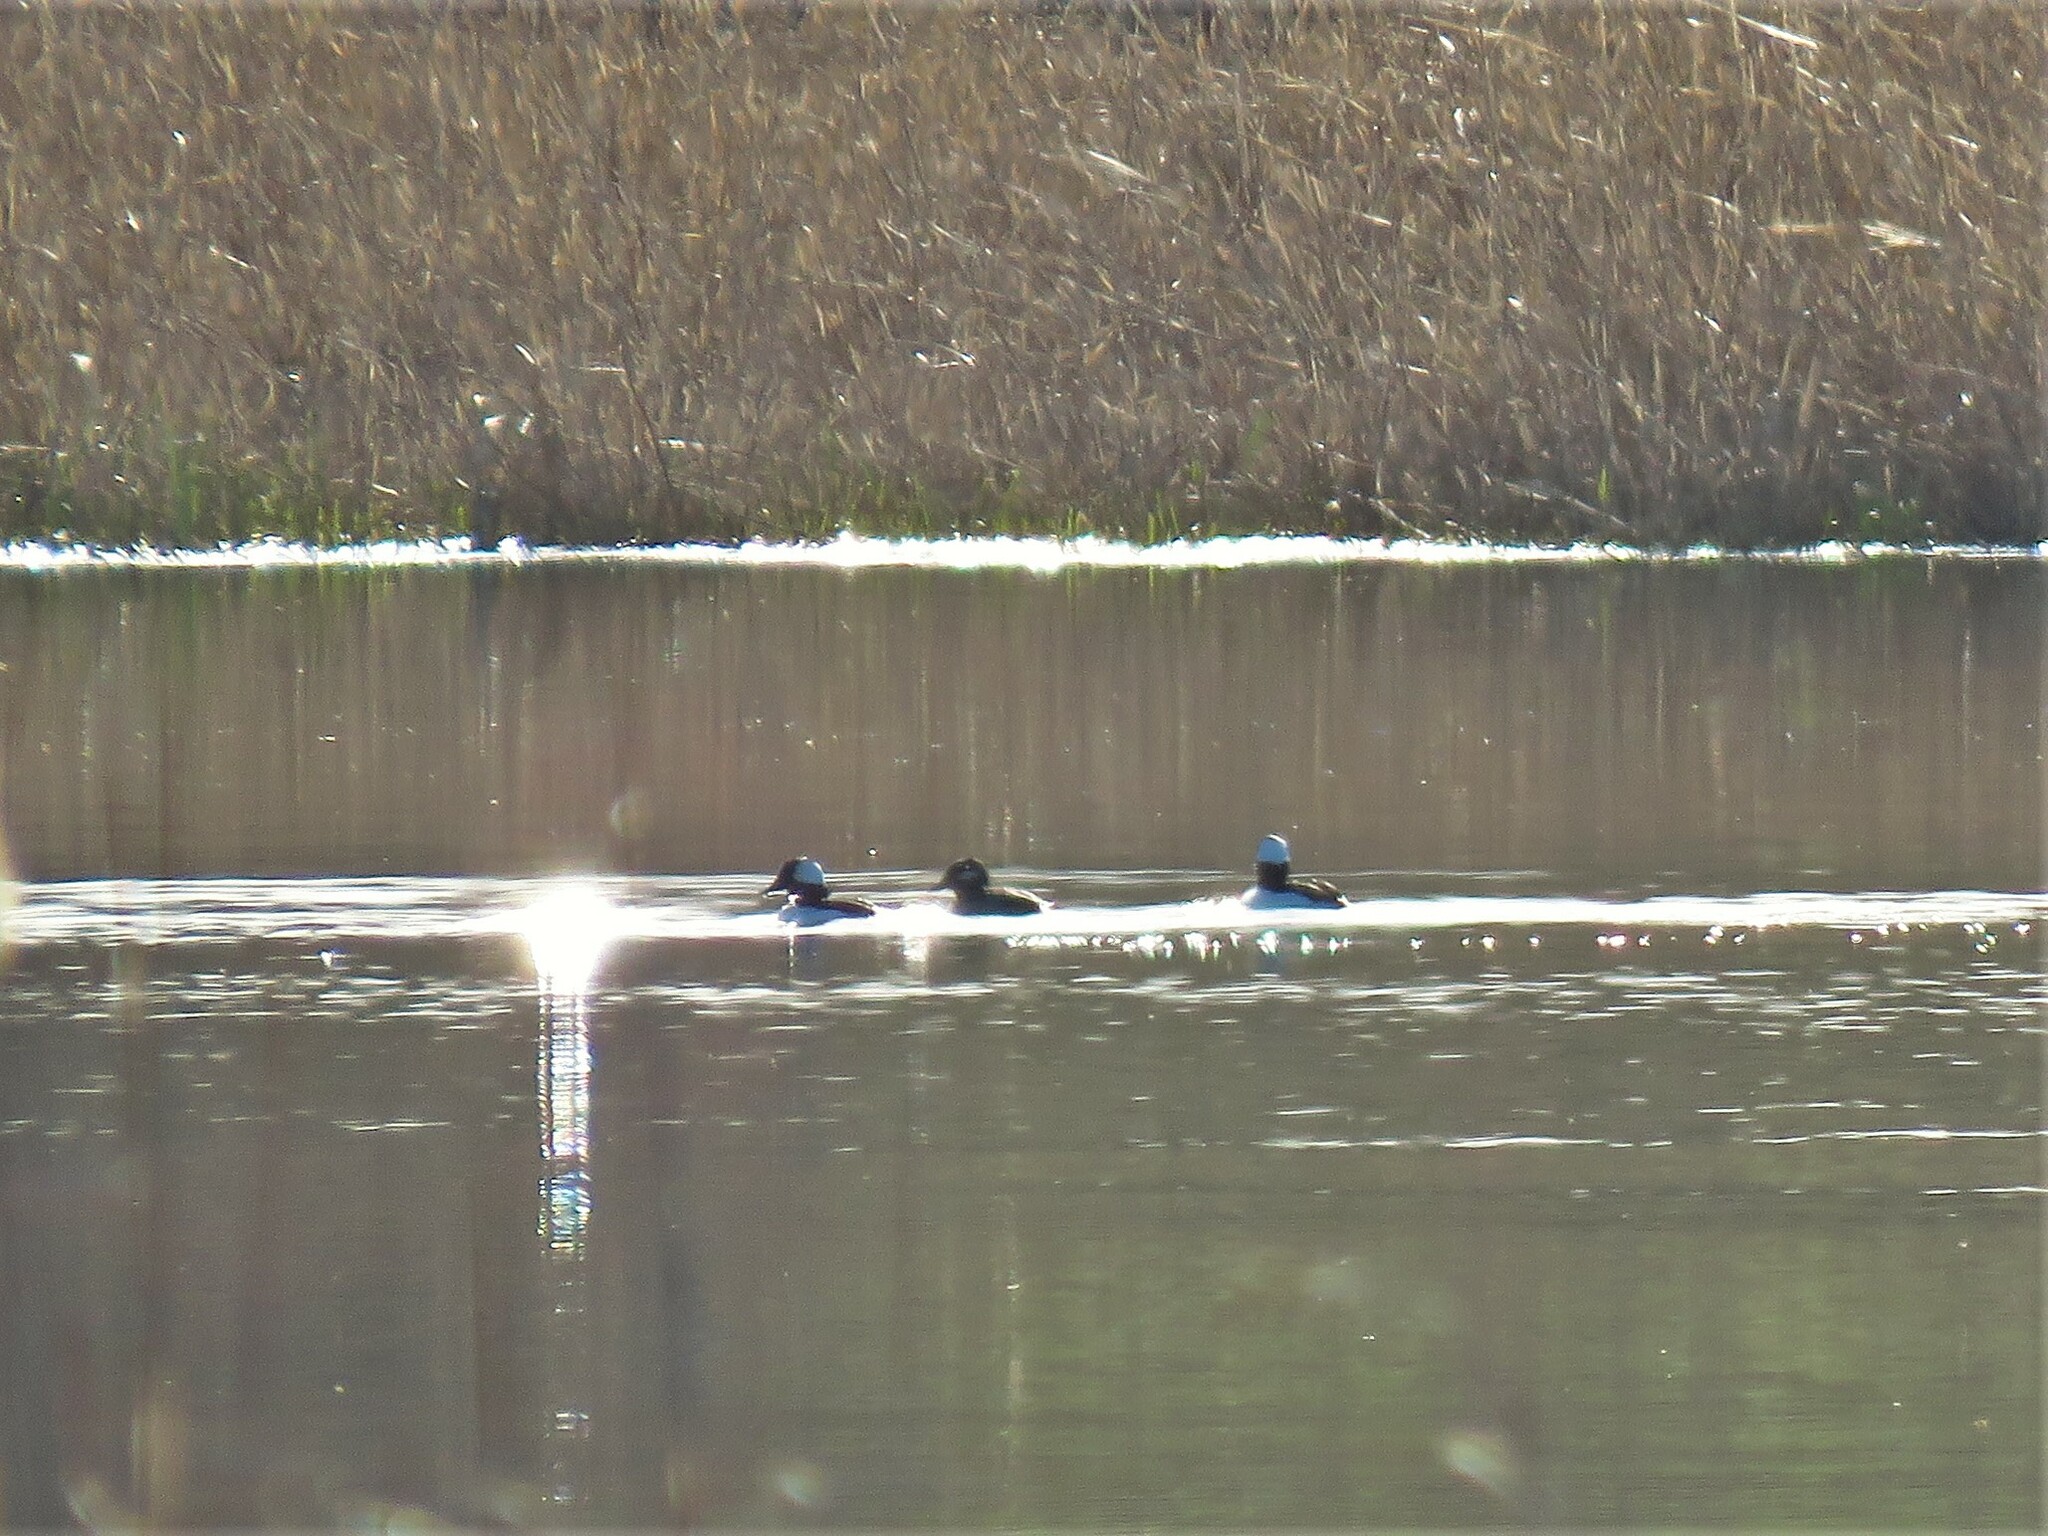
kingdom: Animalia
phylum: Chordata
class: Aves
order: Anseriformes
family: Anatidae
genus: Bucephala
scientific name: Bucephala albeola
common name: Bufflehead
